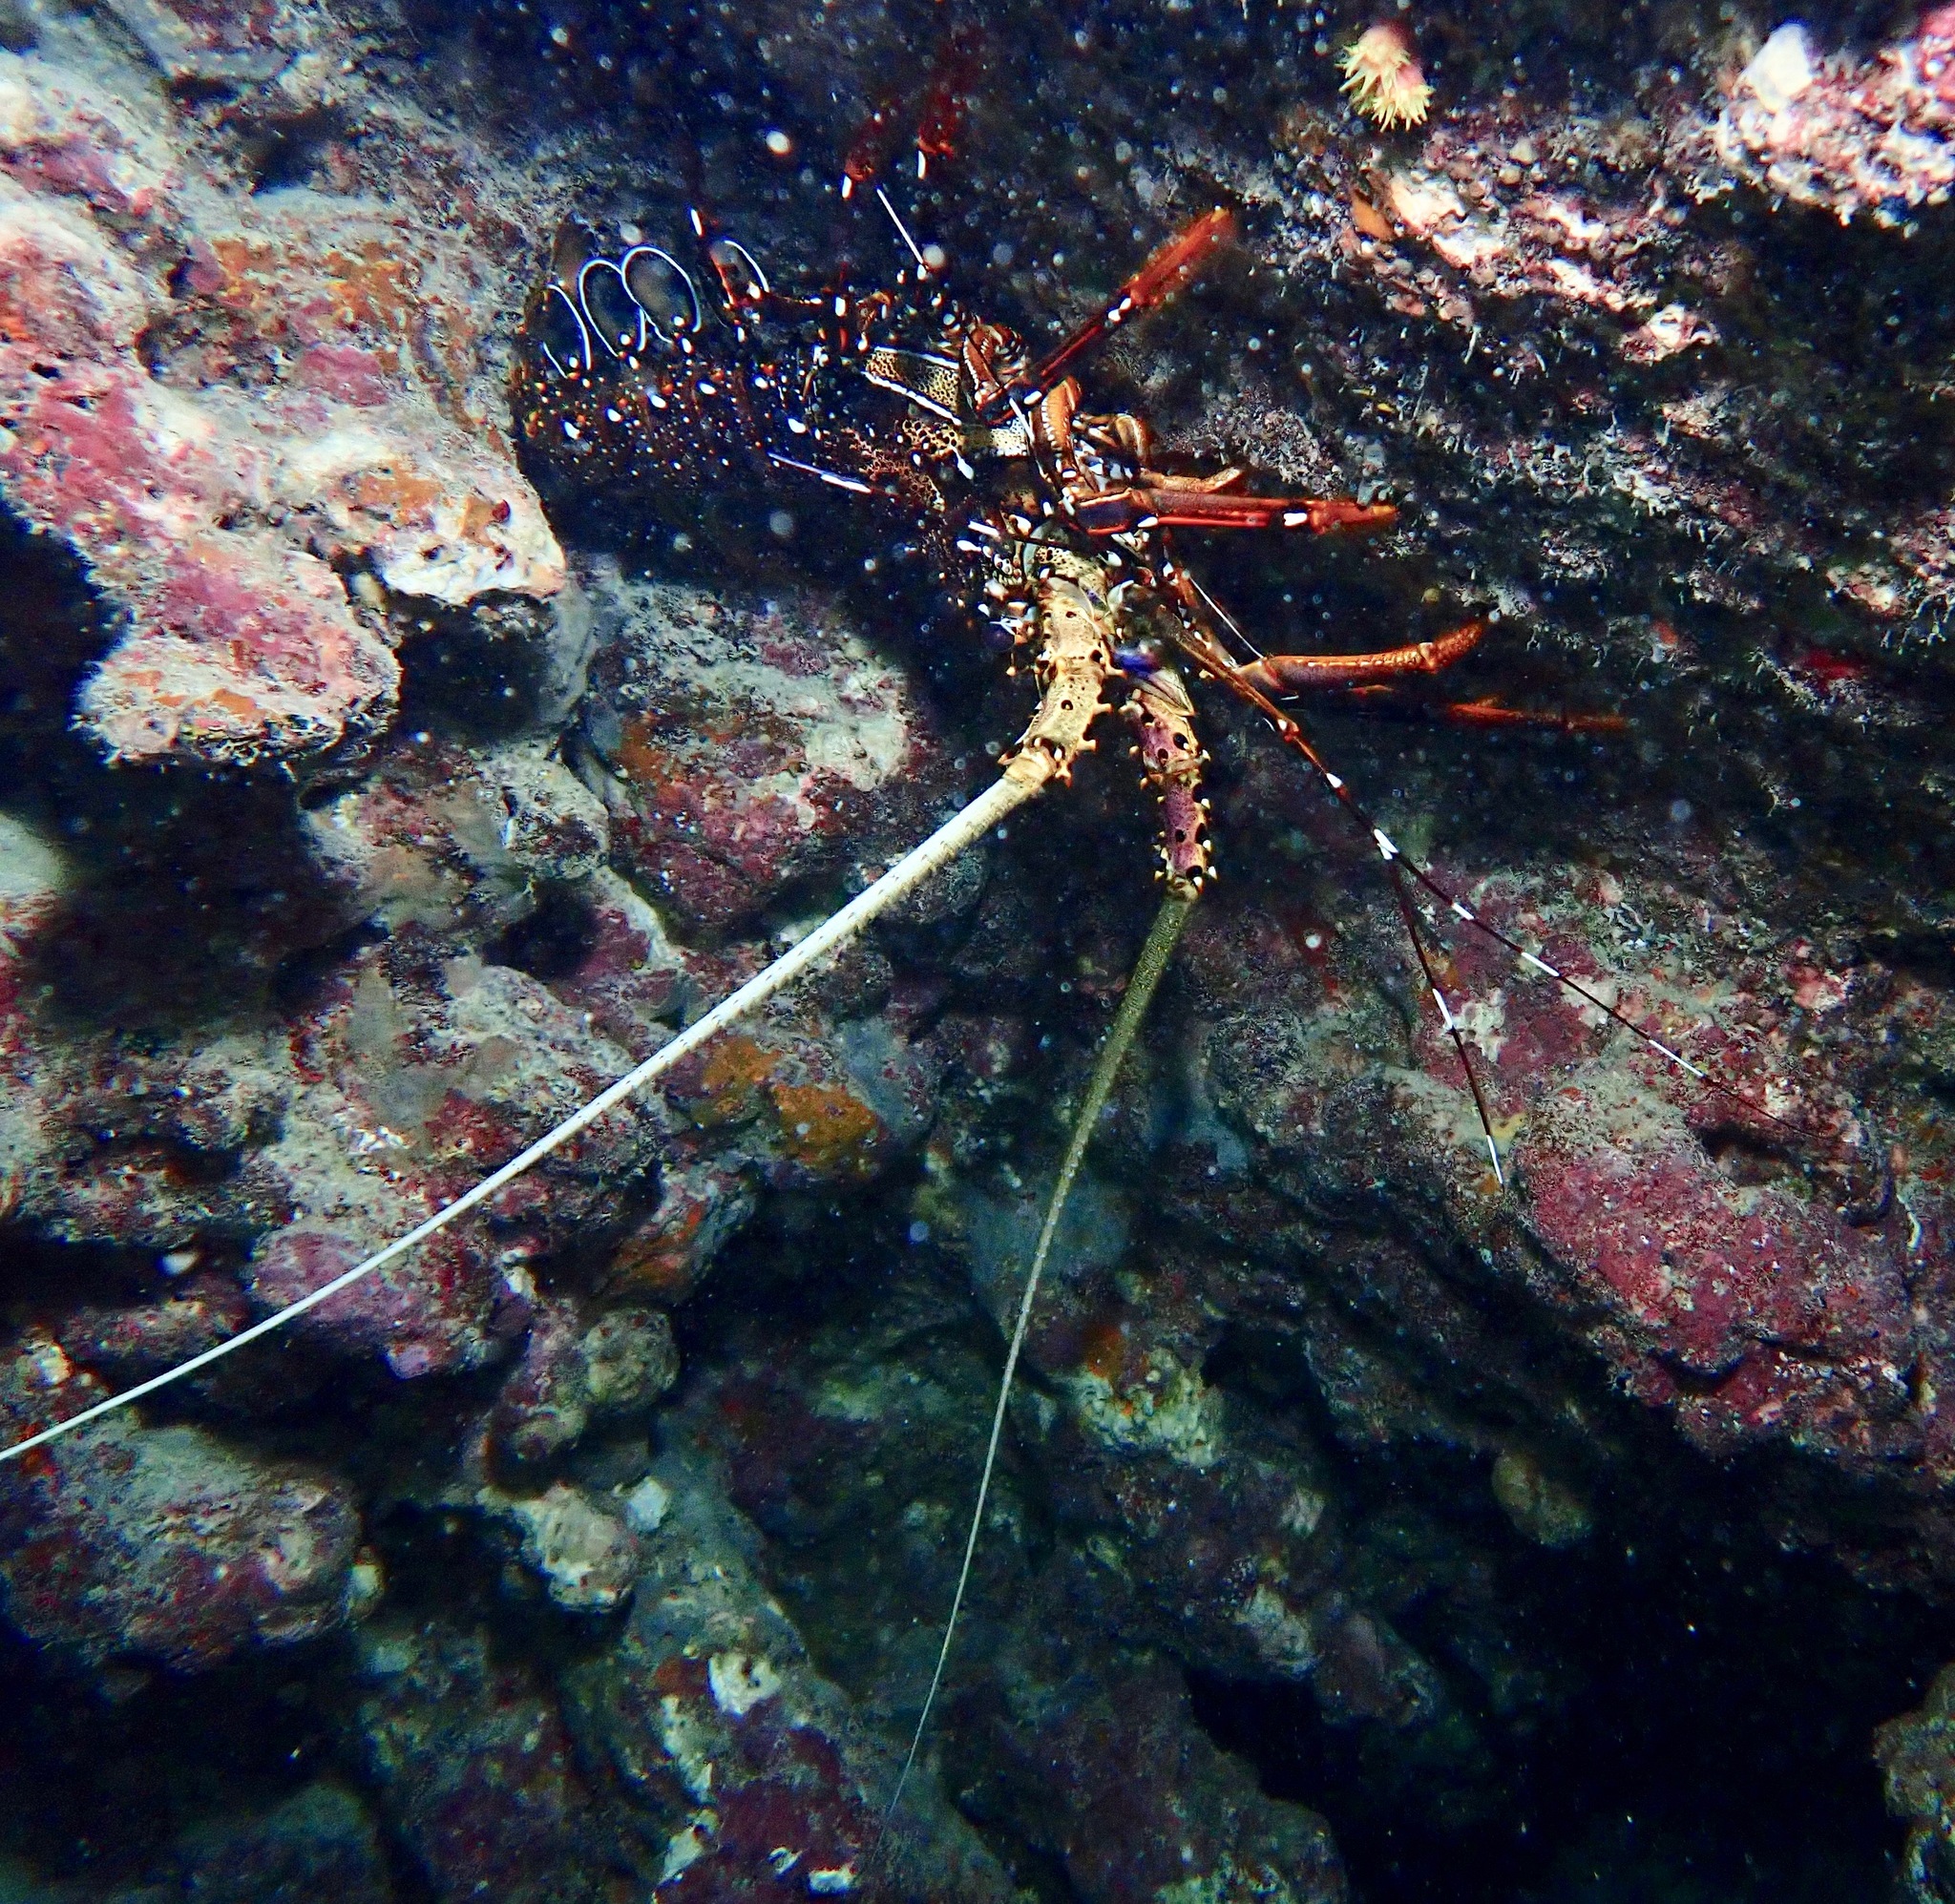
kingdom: Animalia
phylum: Arthropoda
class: Malacostraca
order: Decapoda
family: Palinuridae
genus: Panulirus
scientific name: Panulirus longipes
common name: Longlegged spiny lobster
